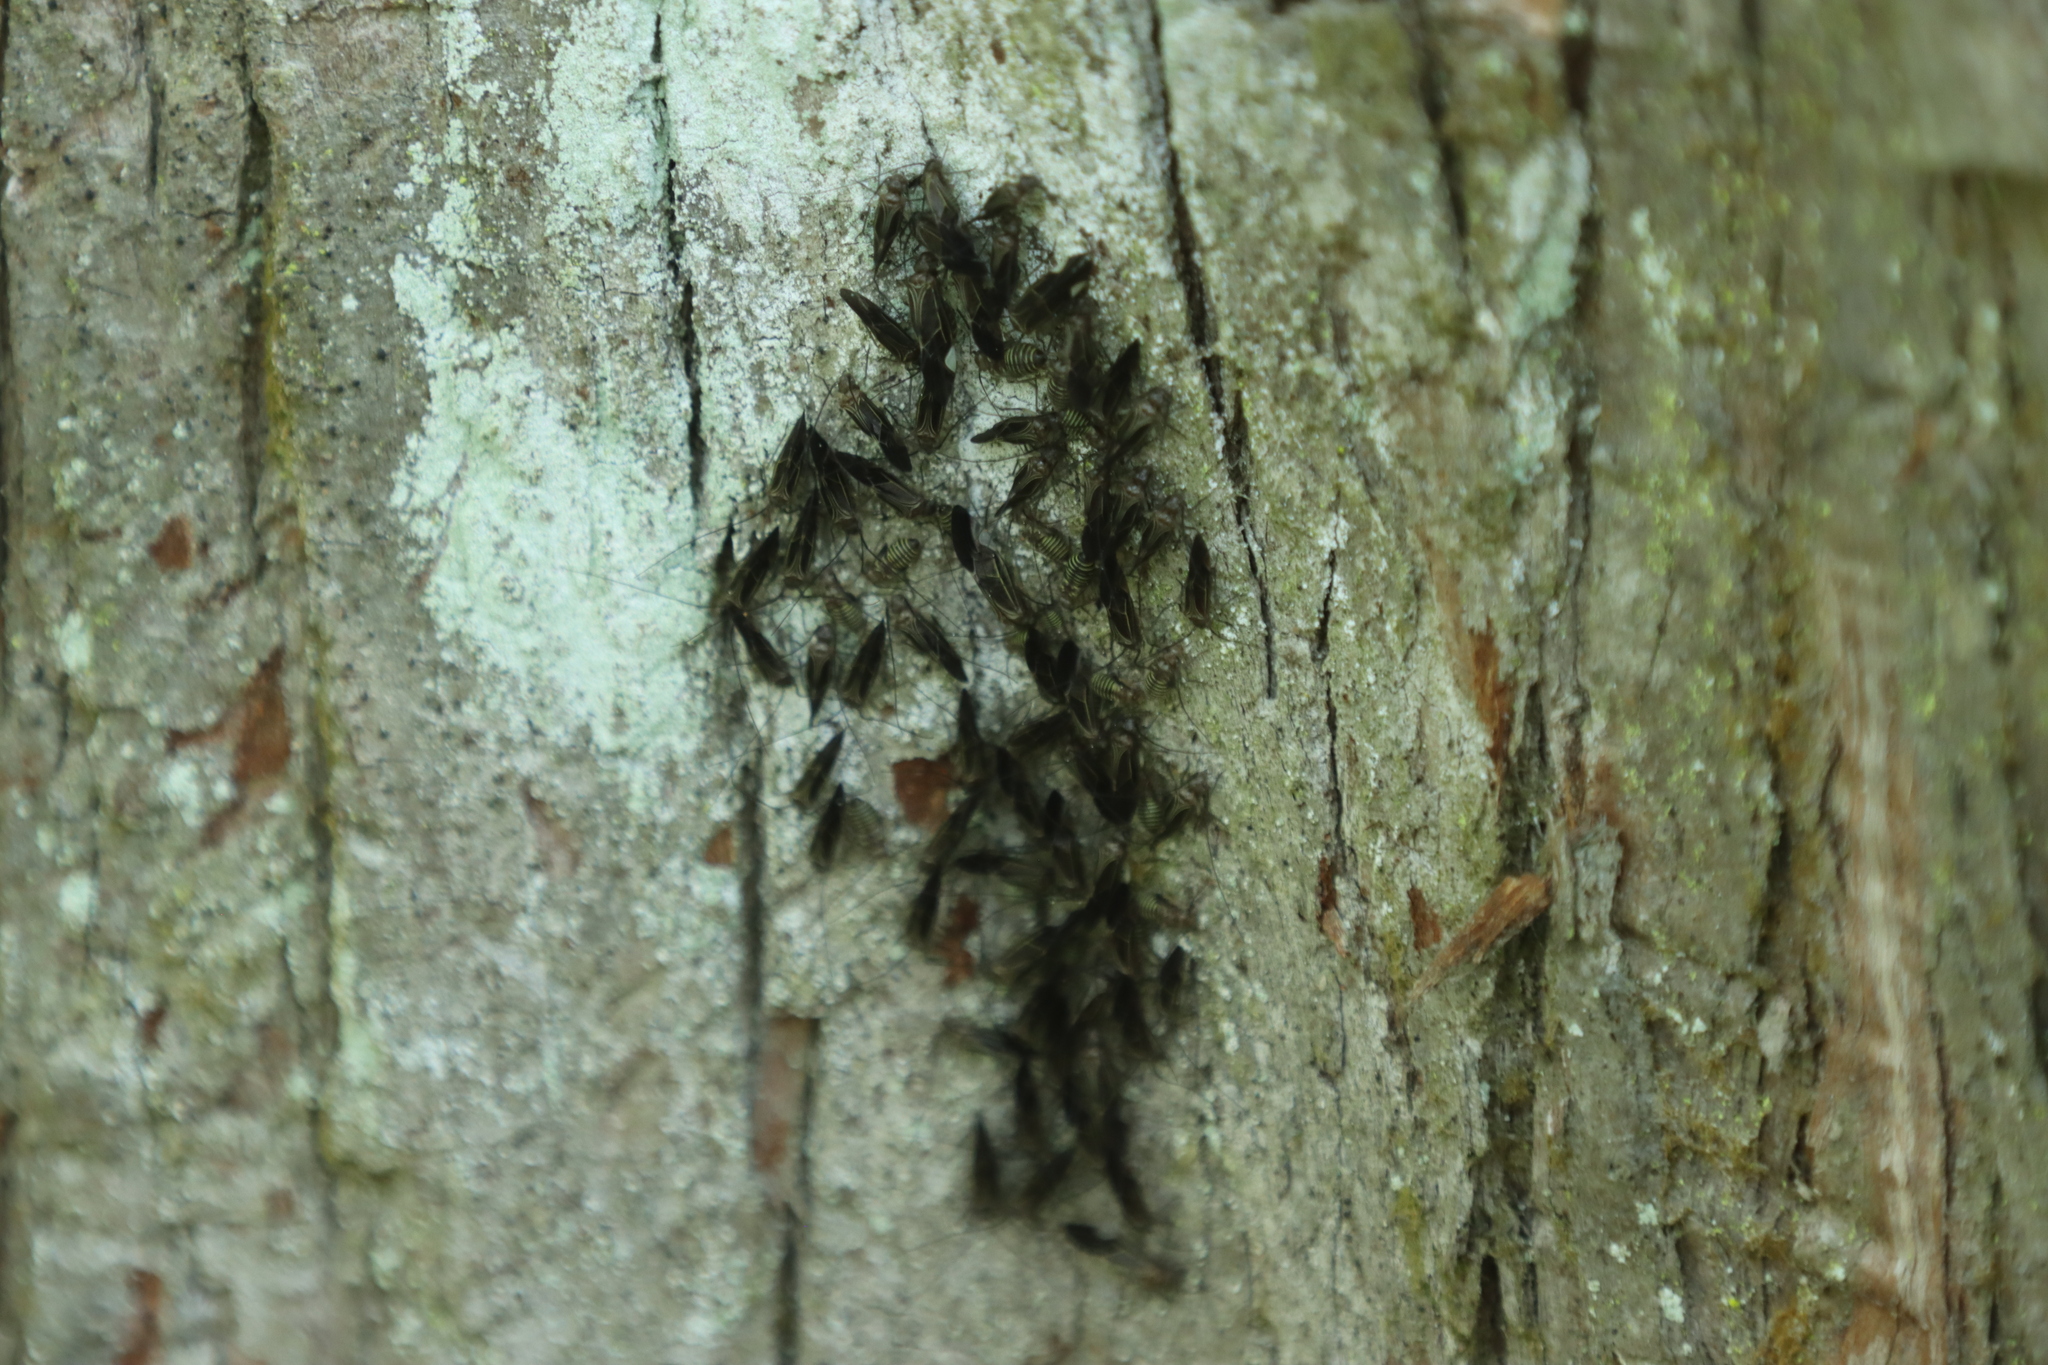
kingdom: Animalia
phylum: Arthropoda
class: Insecta
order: Psocodea
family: Psocidae
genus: Cerastipsocus
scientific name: Cerastipsocus venosus
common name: Tree cattle
